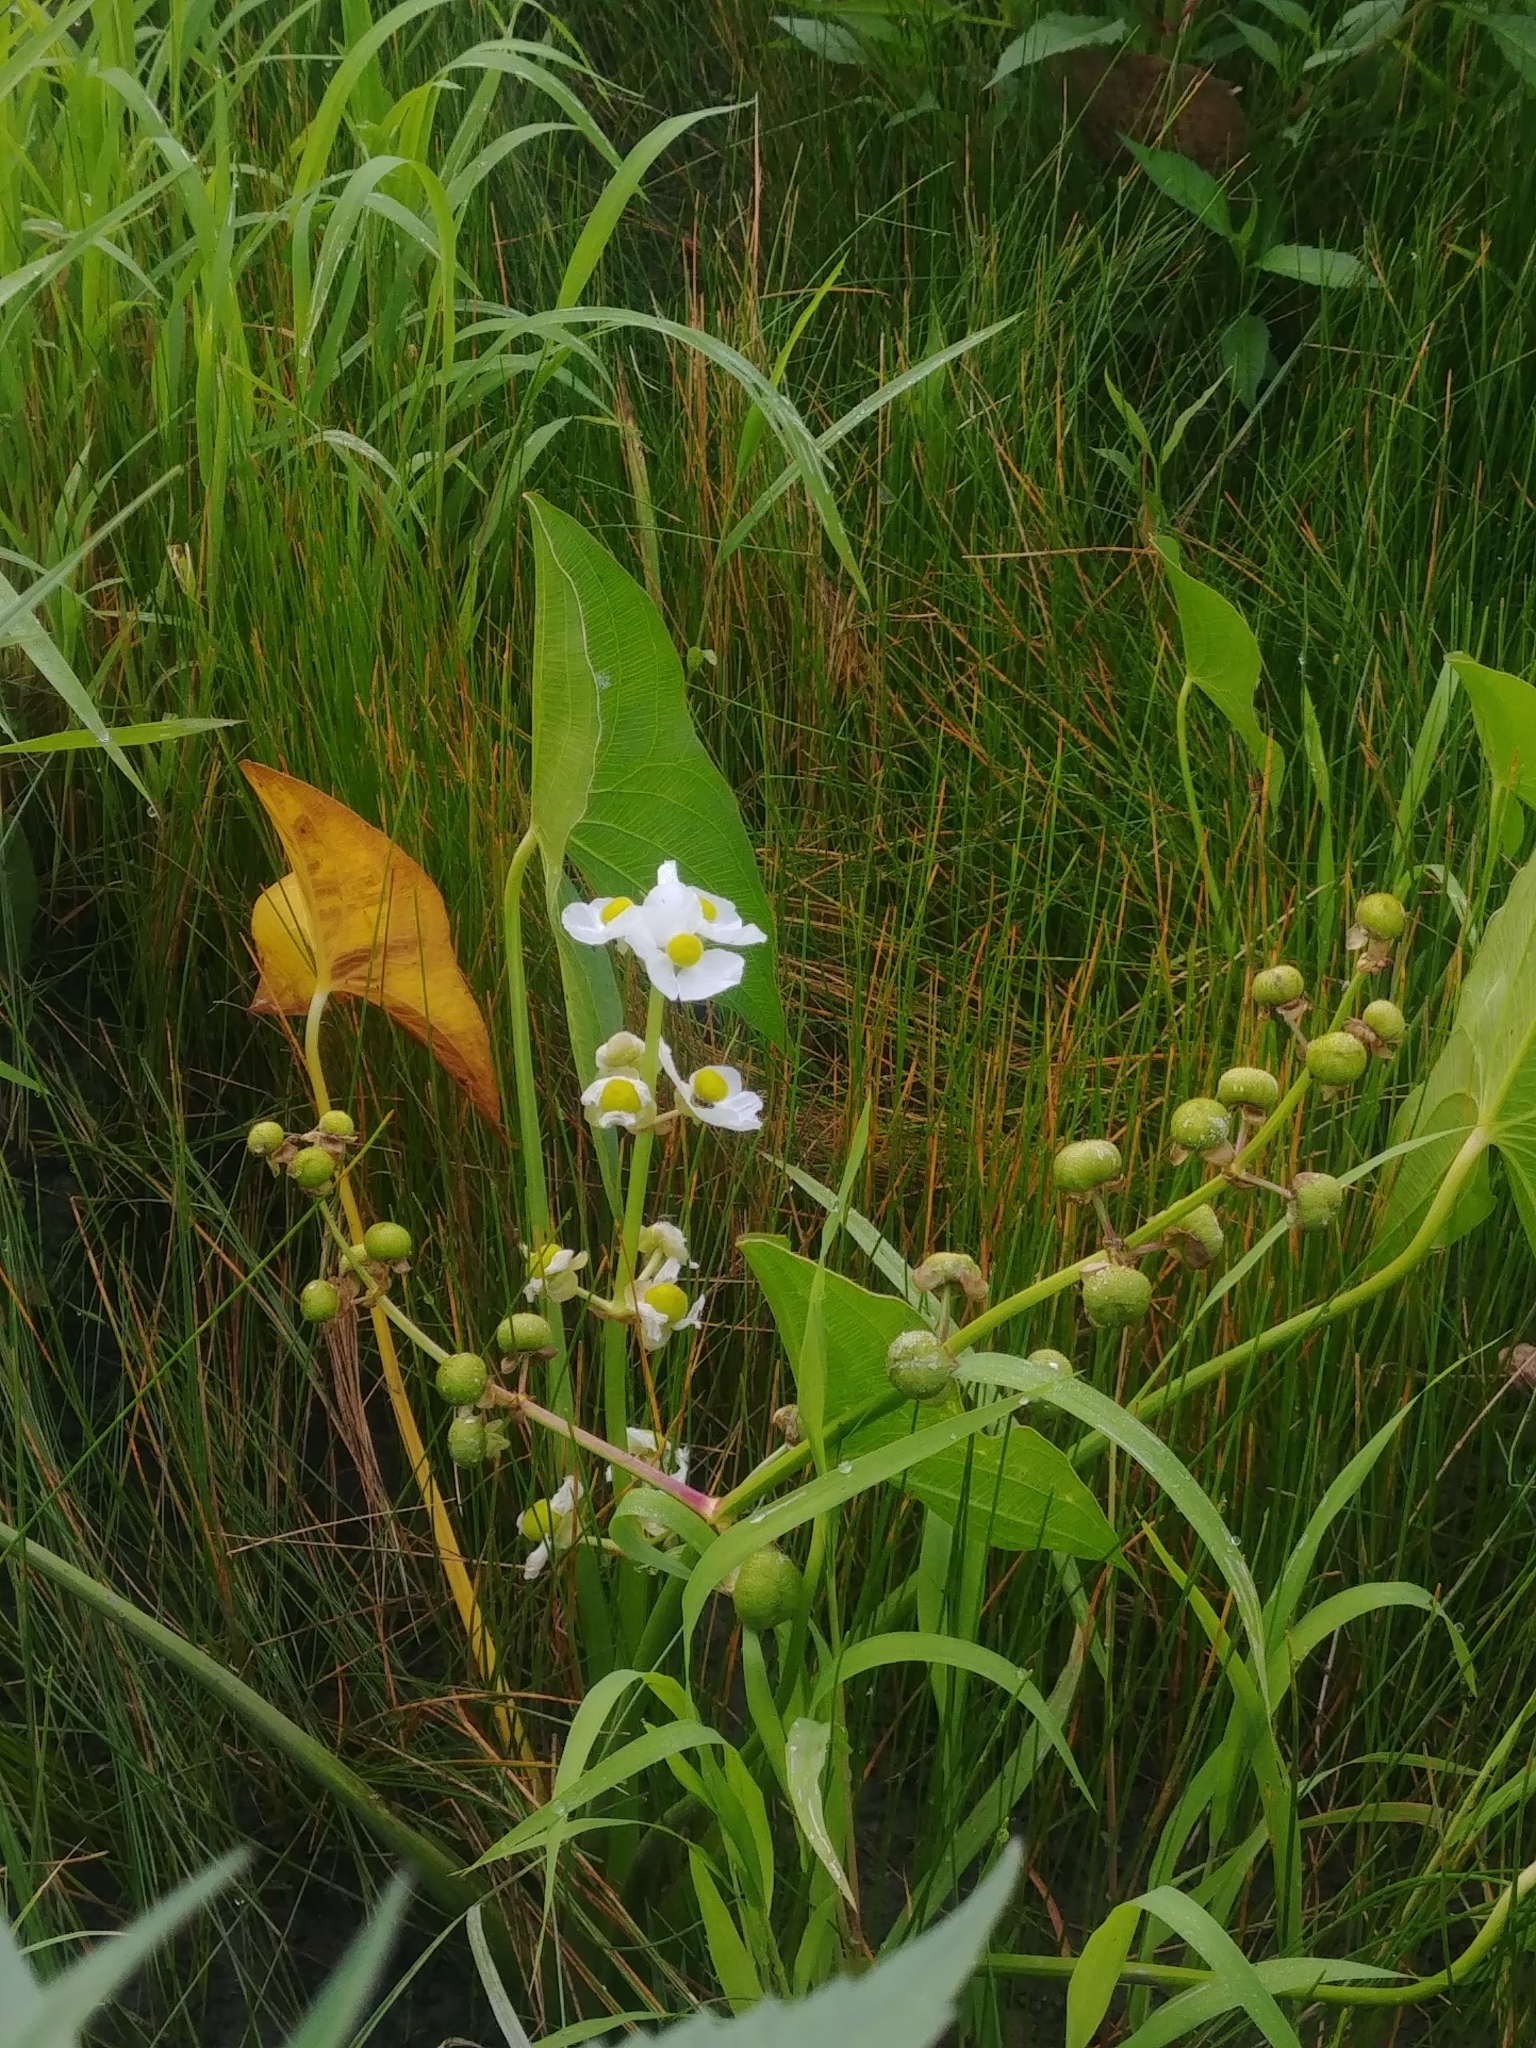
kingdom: Plantae
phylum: Tracheophyta
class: Liliopsida
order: Alismatales
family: Alismataceae
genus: Sagittaria
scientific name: Sagittaria latifolia
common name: Duck-potato
